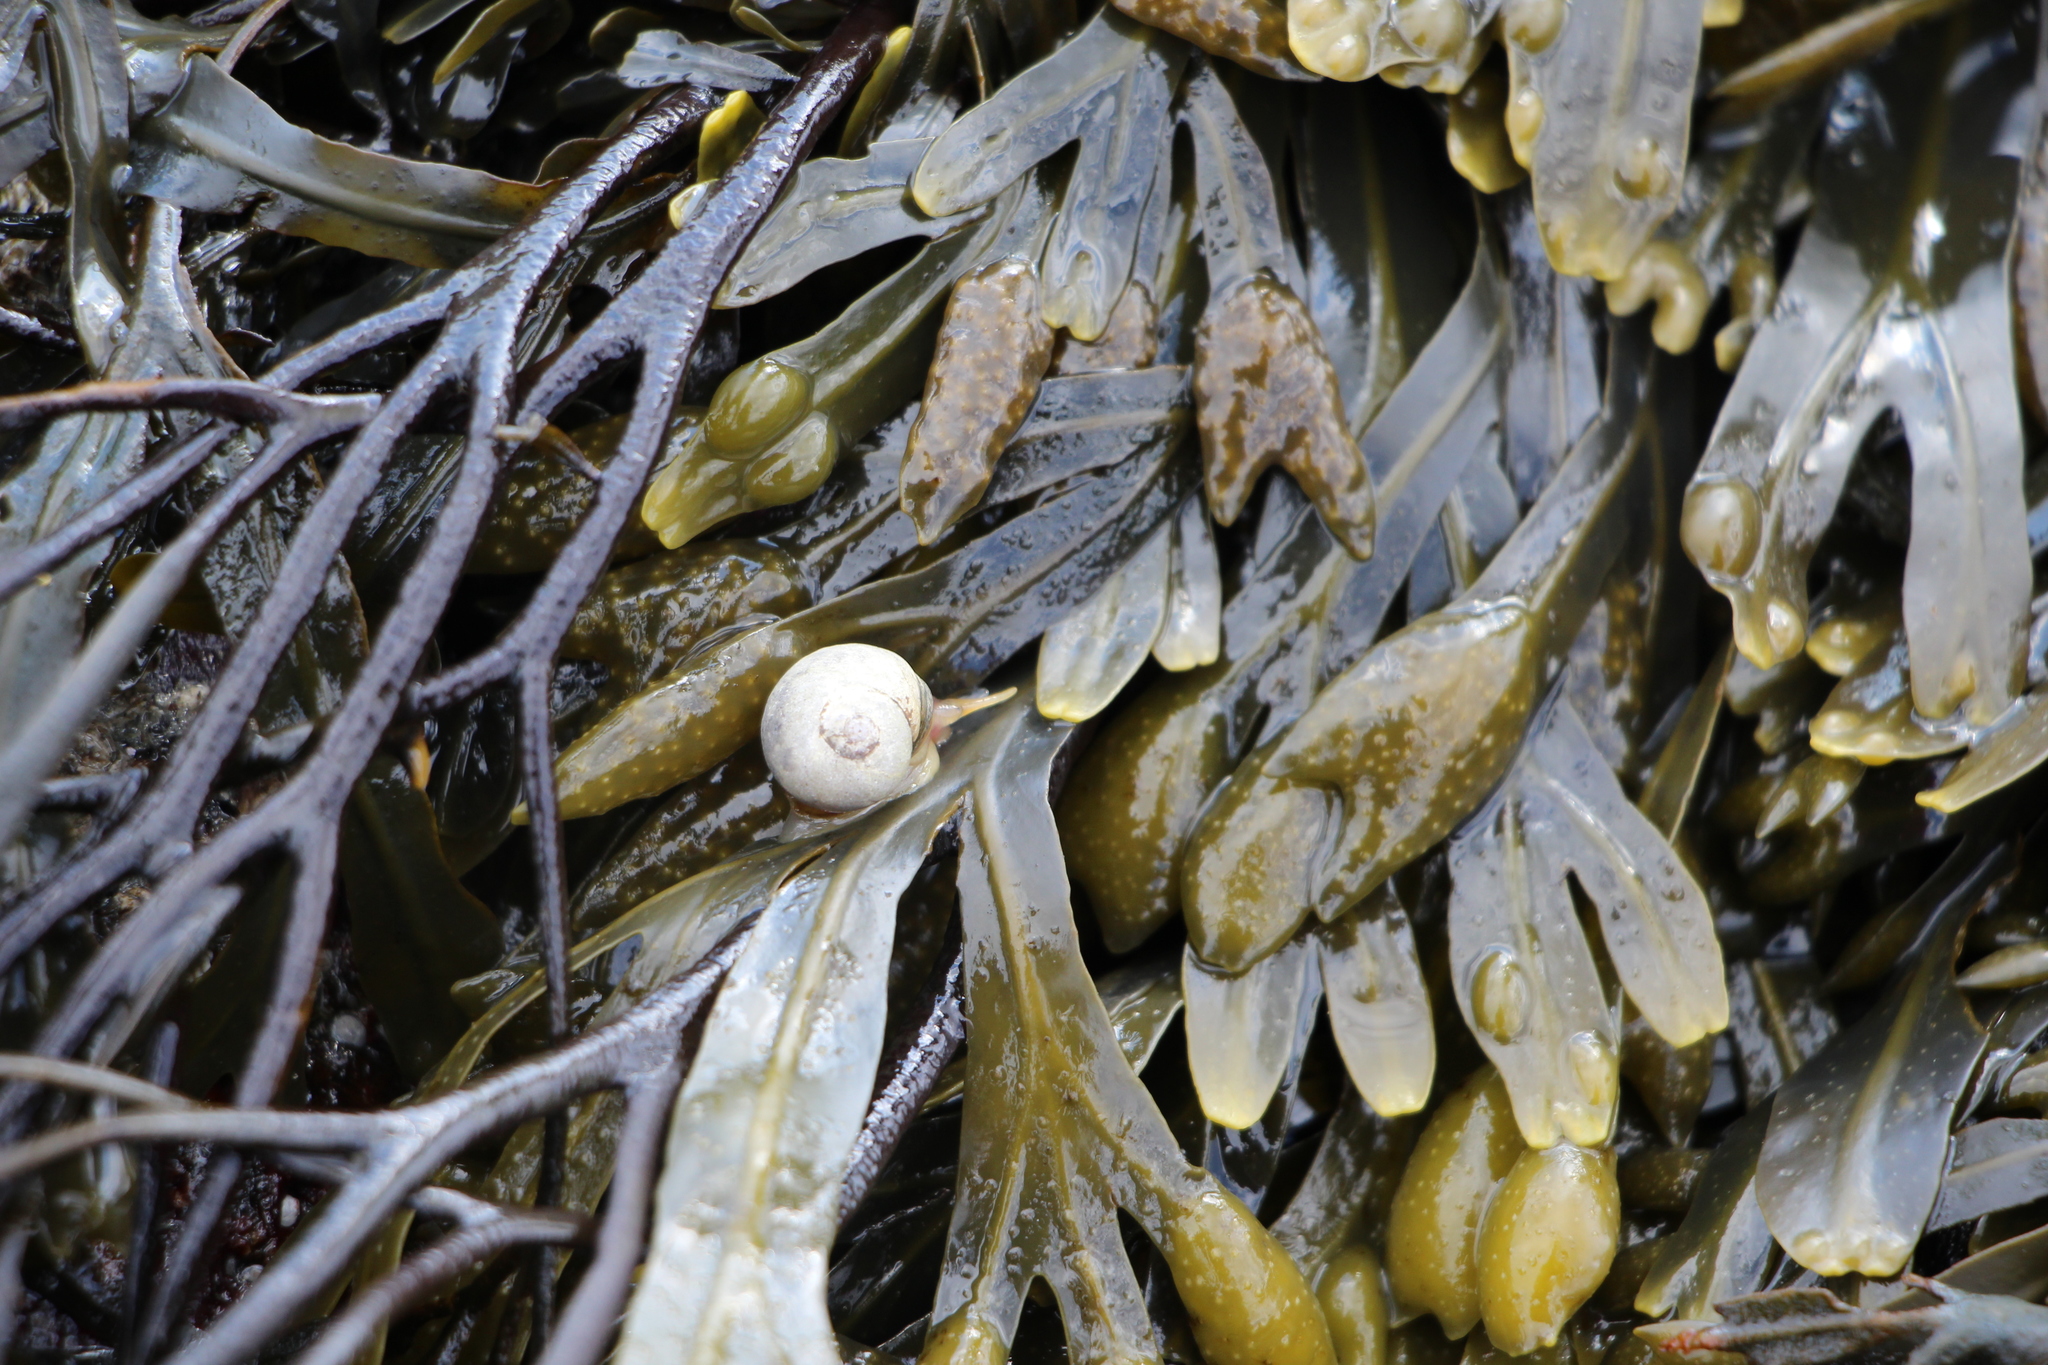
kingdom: Animalia
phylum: Mollusca
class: Gastropoda
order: Littorinimorpha
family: Littorinidae
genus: Littorina
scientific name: Littorina obtusata
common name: Flat periwinkle
